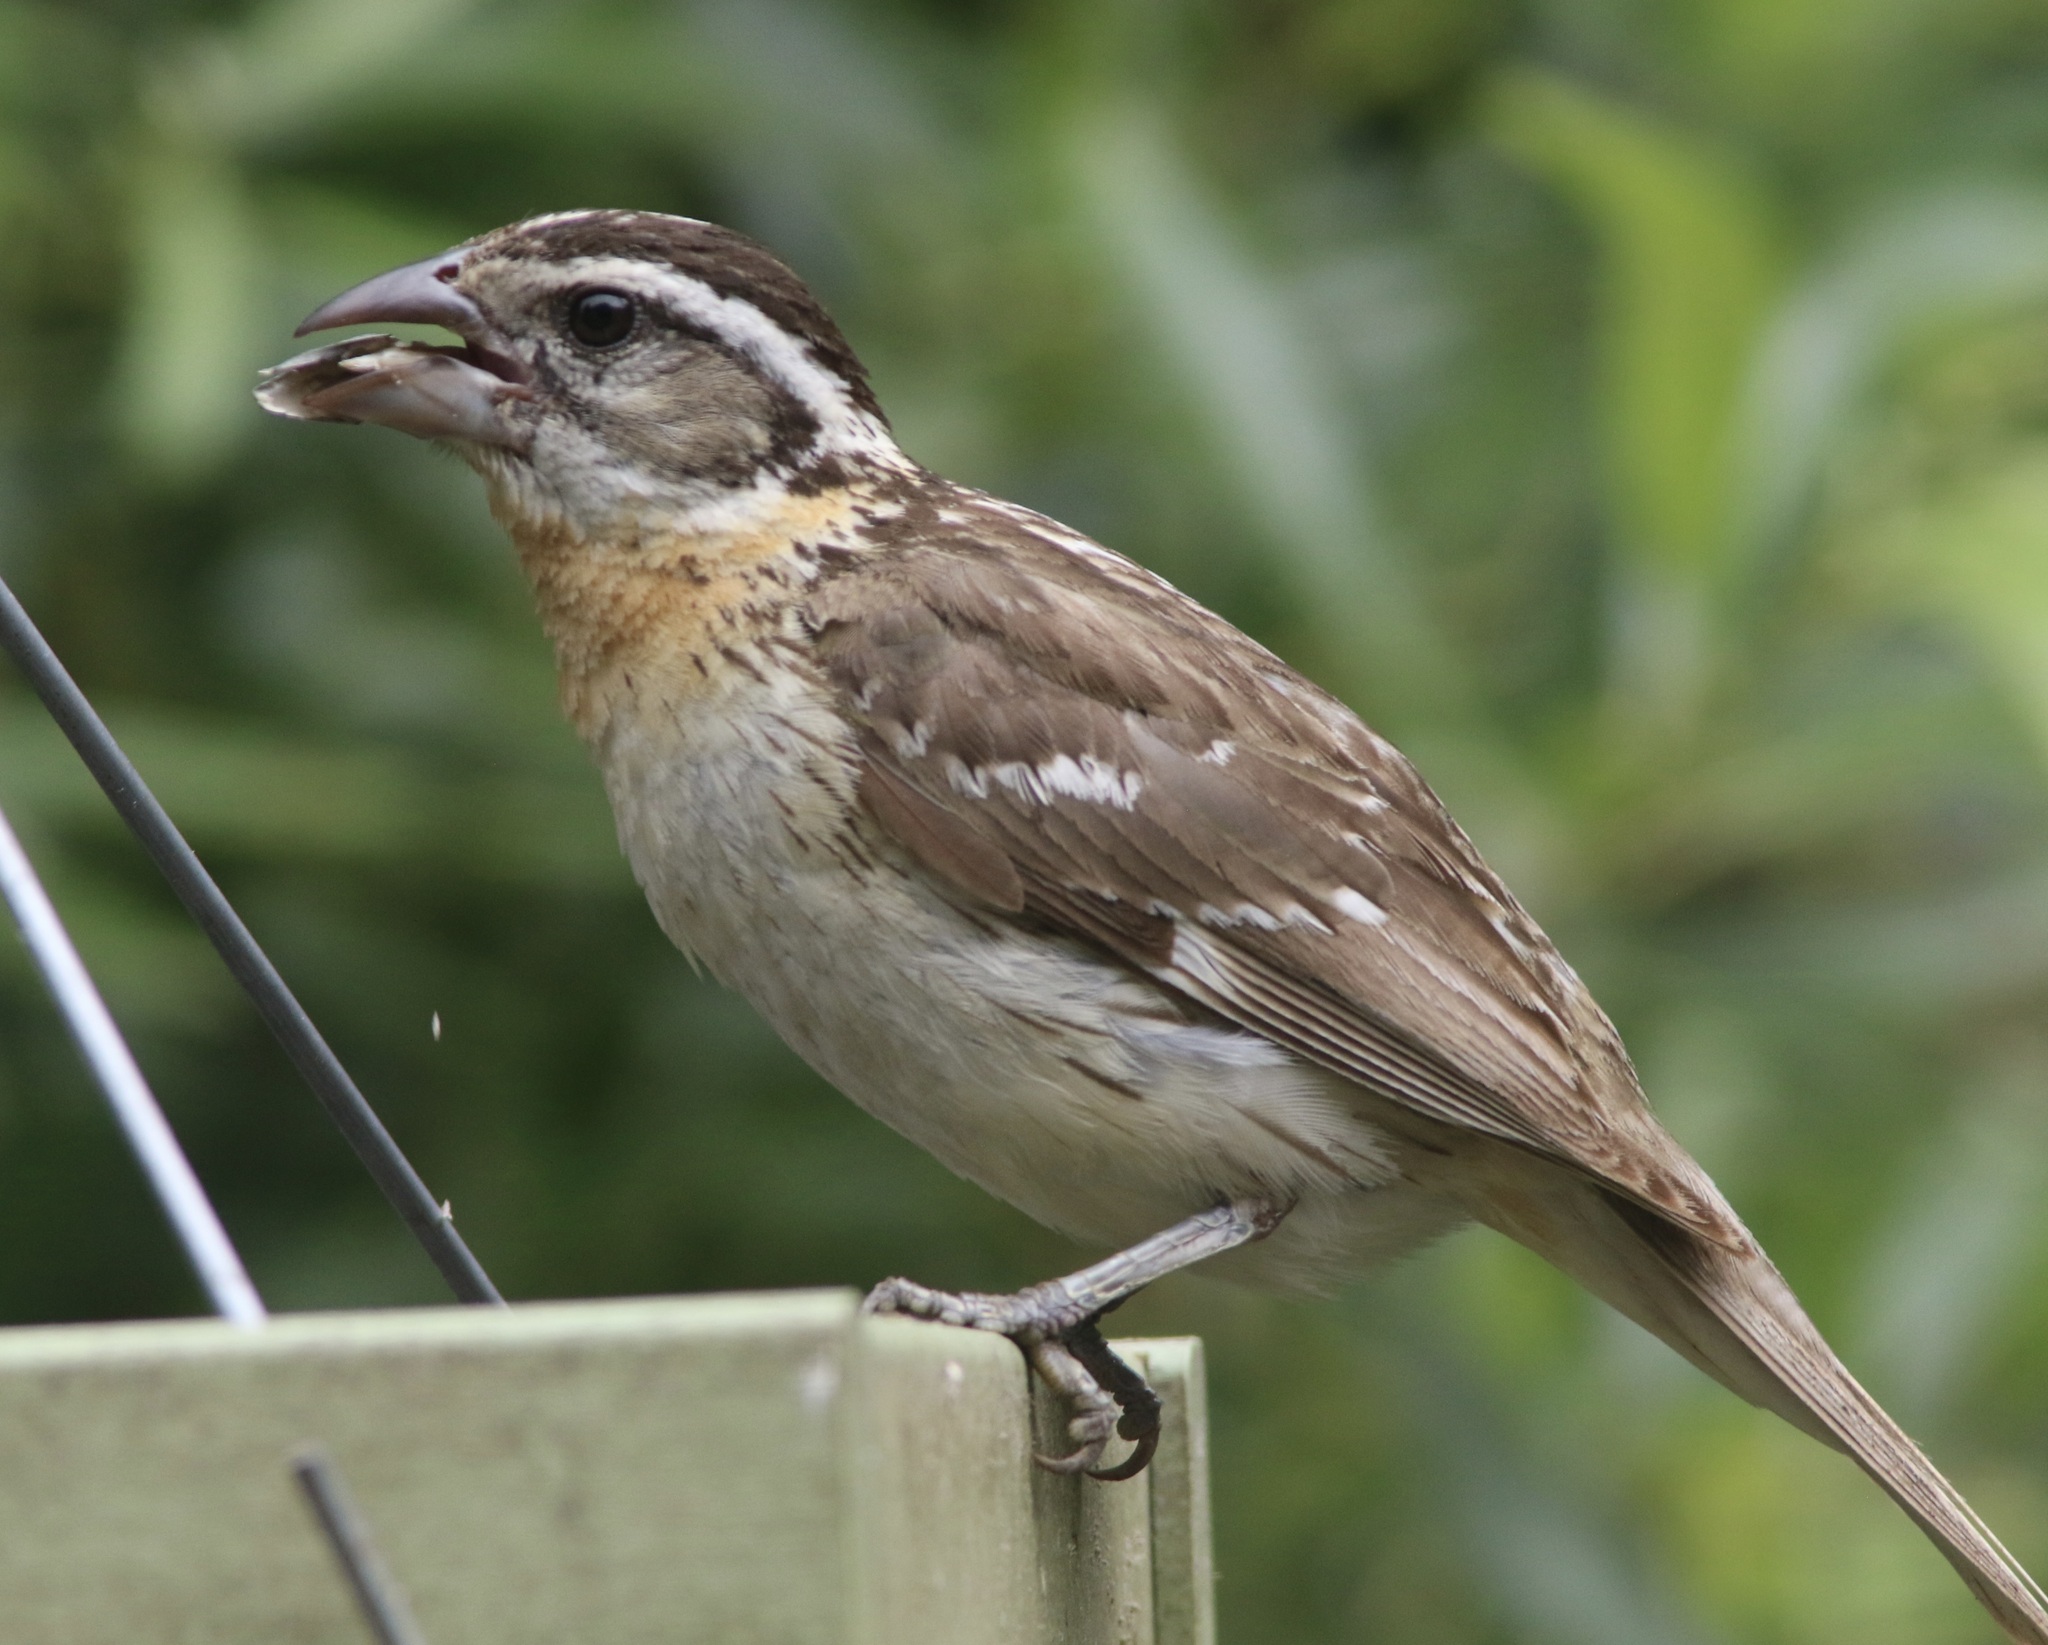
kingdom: Animalia
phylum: Chordata
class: Aves
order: Passeriformes
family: Cardinalidae
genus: Pheucticus
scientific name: Pheucticus melanocephalus
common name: Black-headed grosbeak
